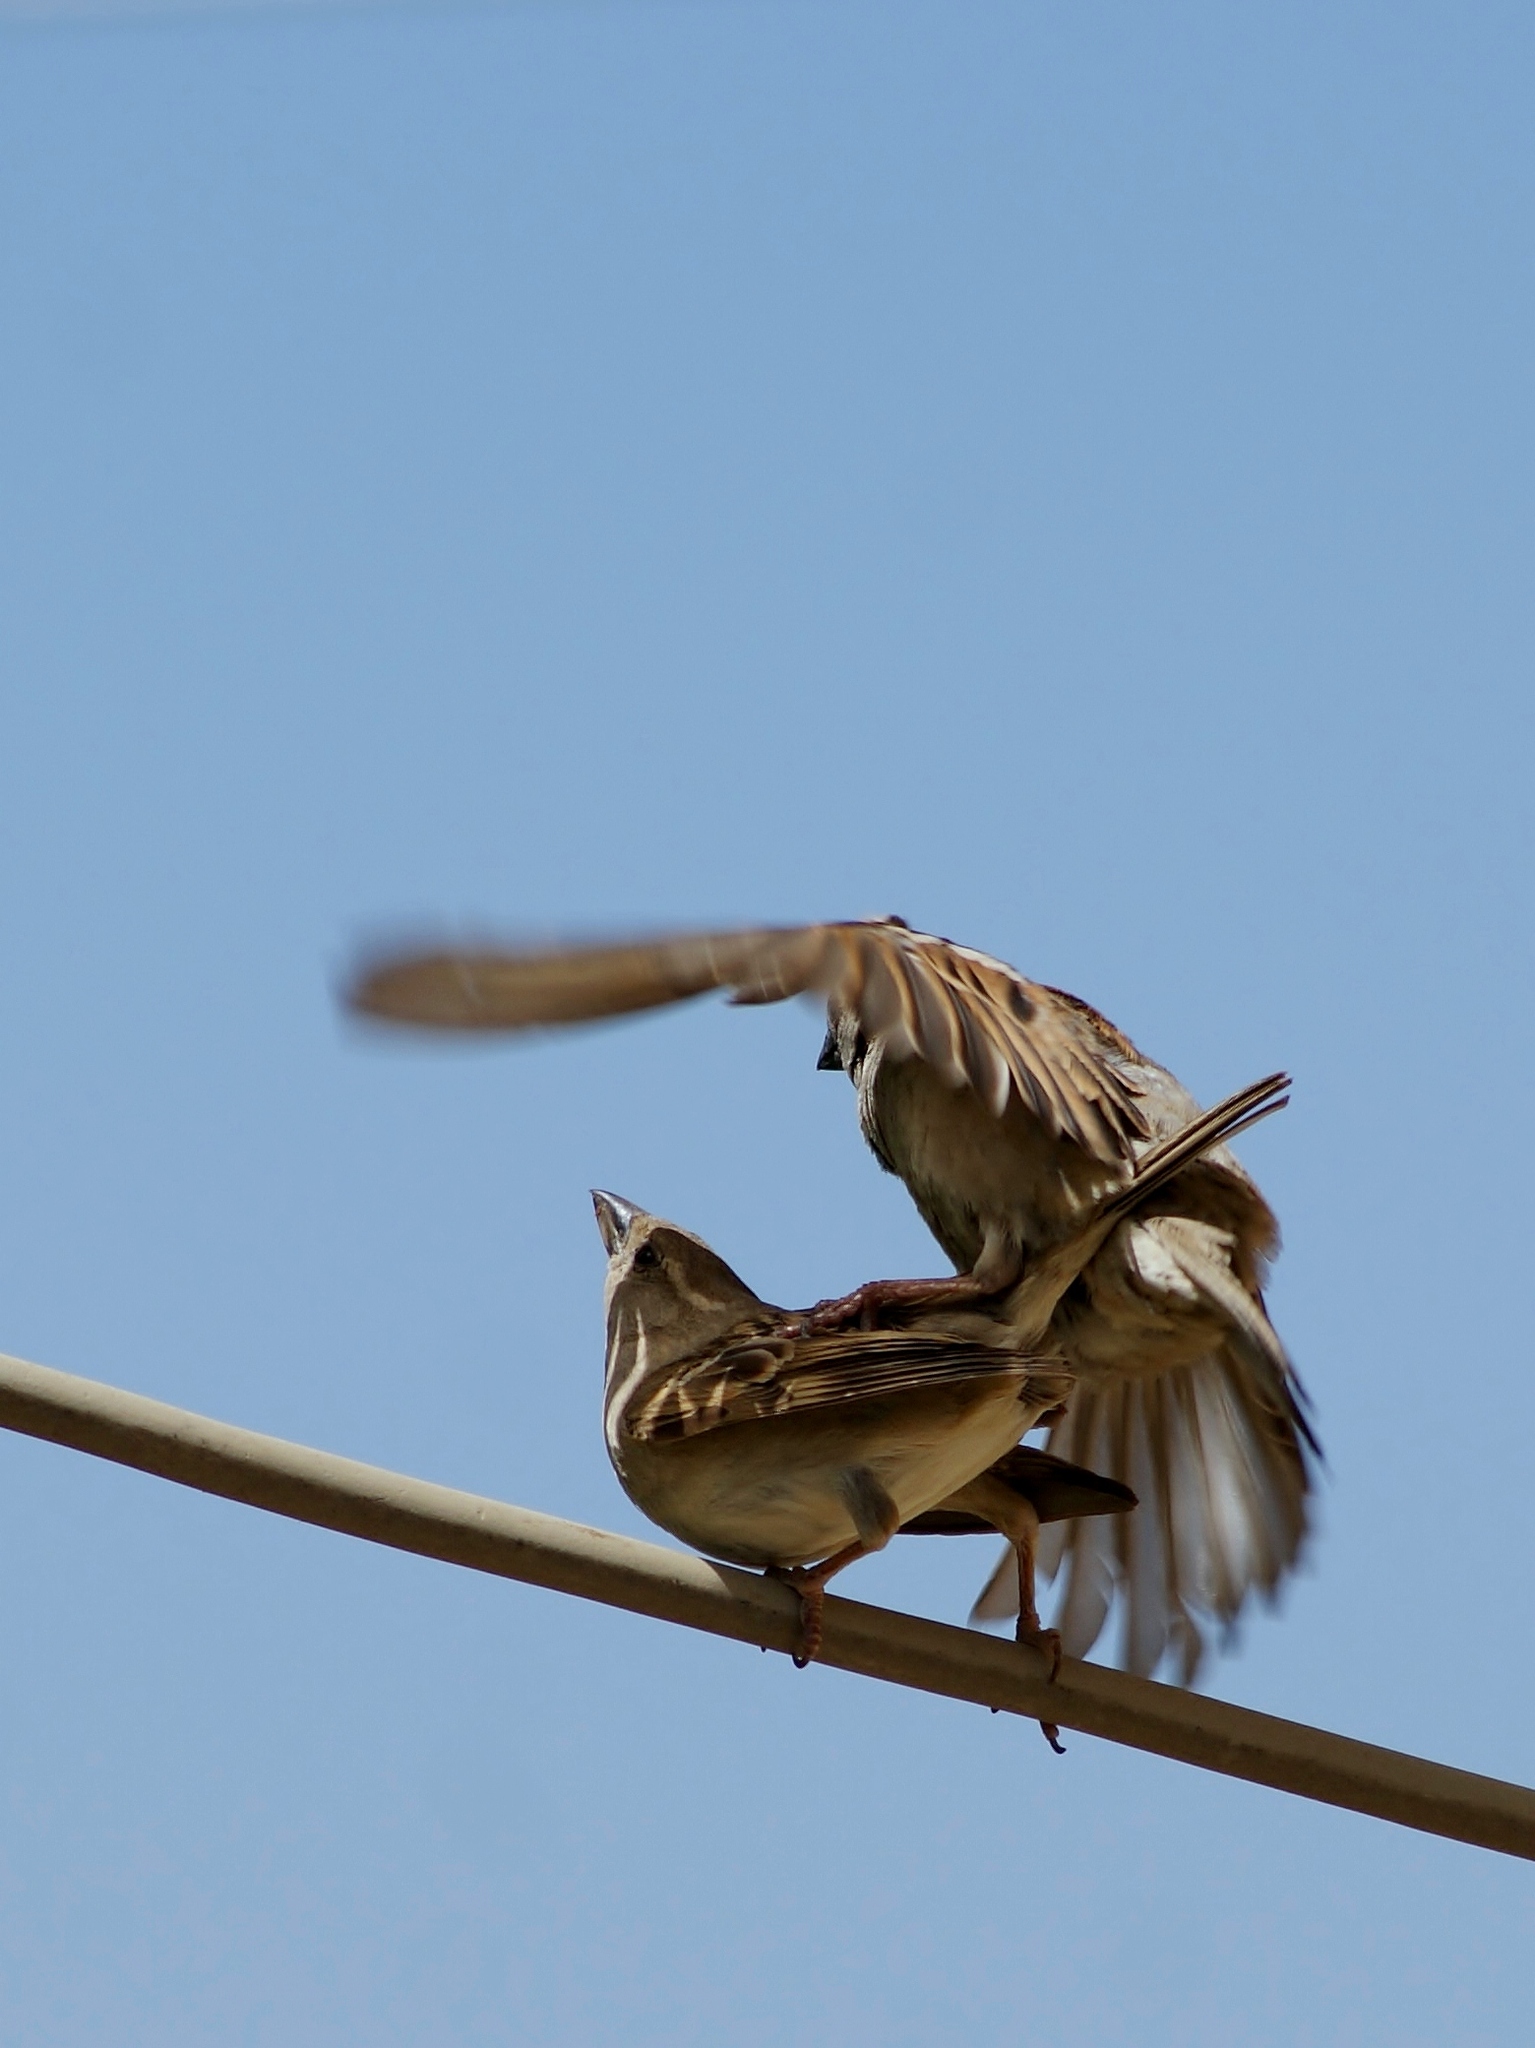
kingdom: Animalia
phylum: Chordata
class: Aves
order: Passeriformes
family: Passeridae
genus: Passer
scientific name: Passer domesticus
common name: House sparrow
